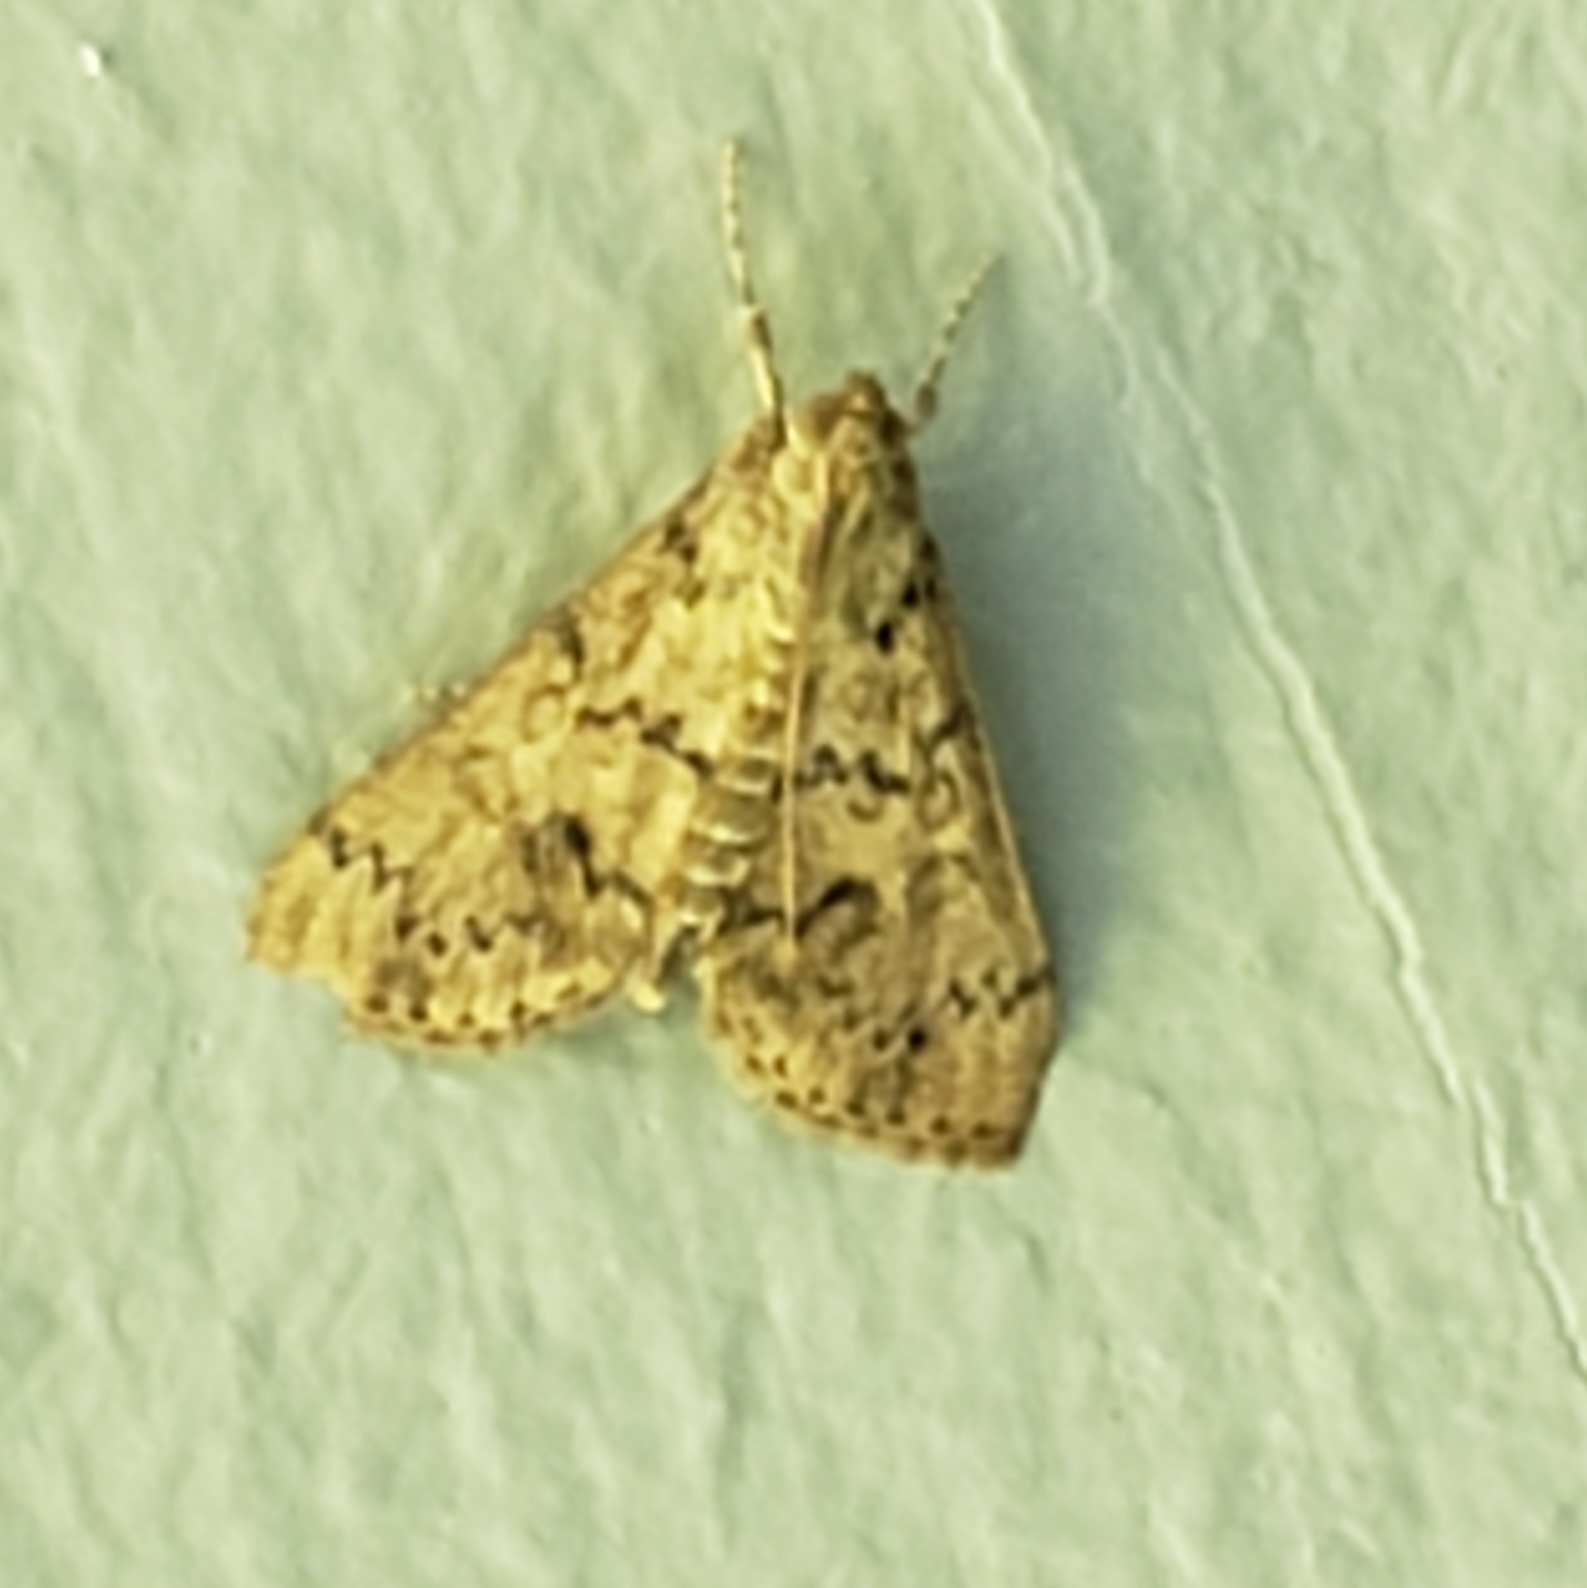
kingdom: Animalia
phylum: Arthropoda
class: Insecta
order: Lepidoptera
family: Crambidae
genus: Asciodes
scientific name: Asciodes gordialis
